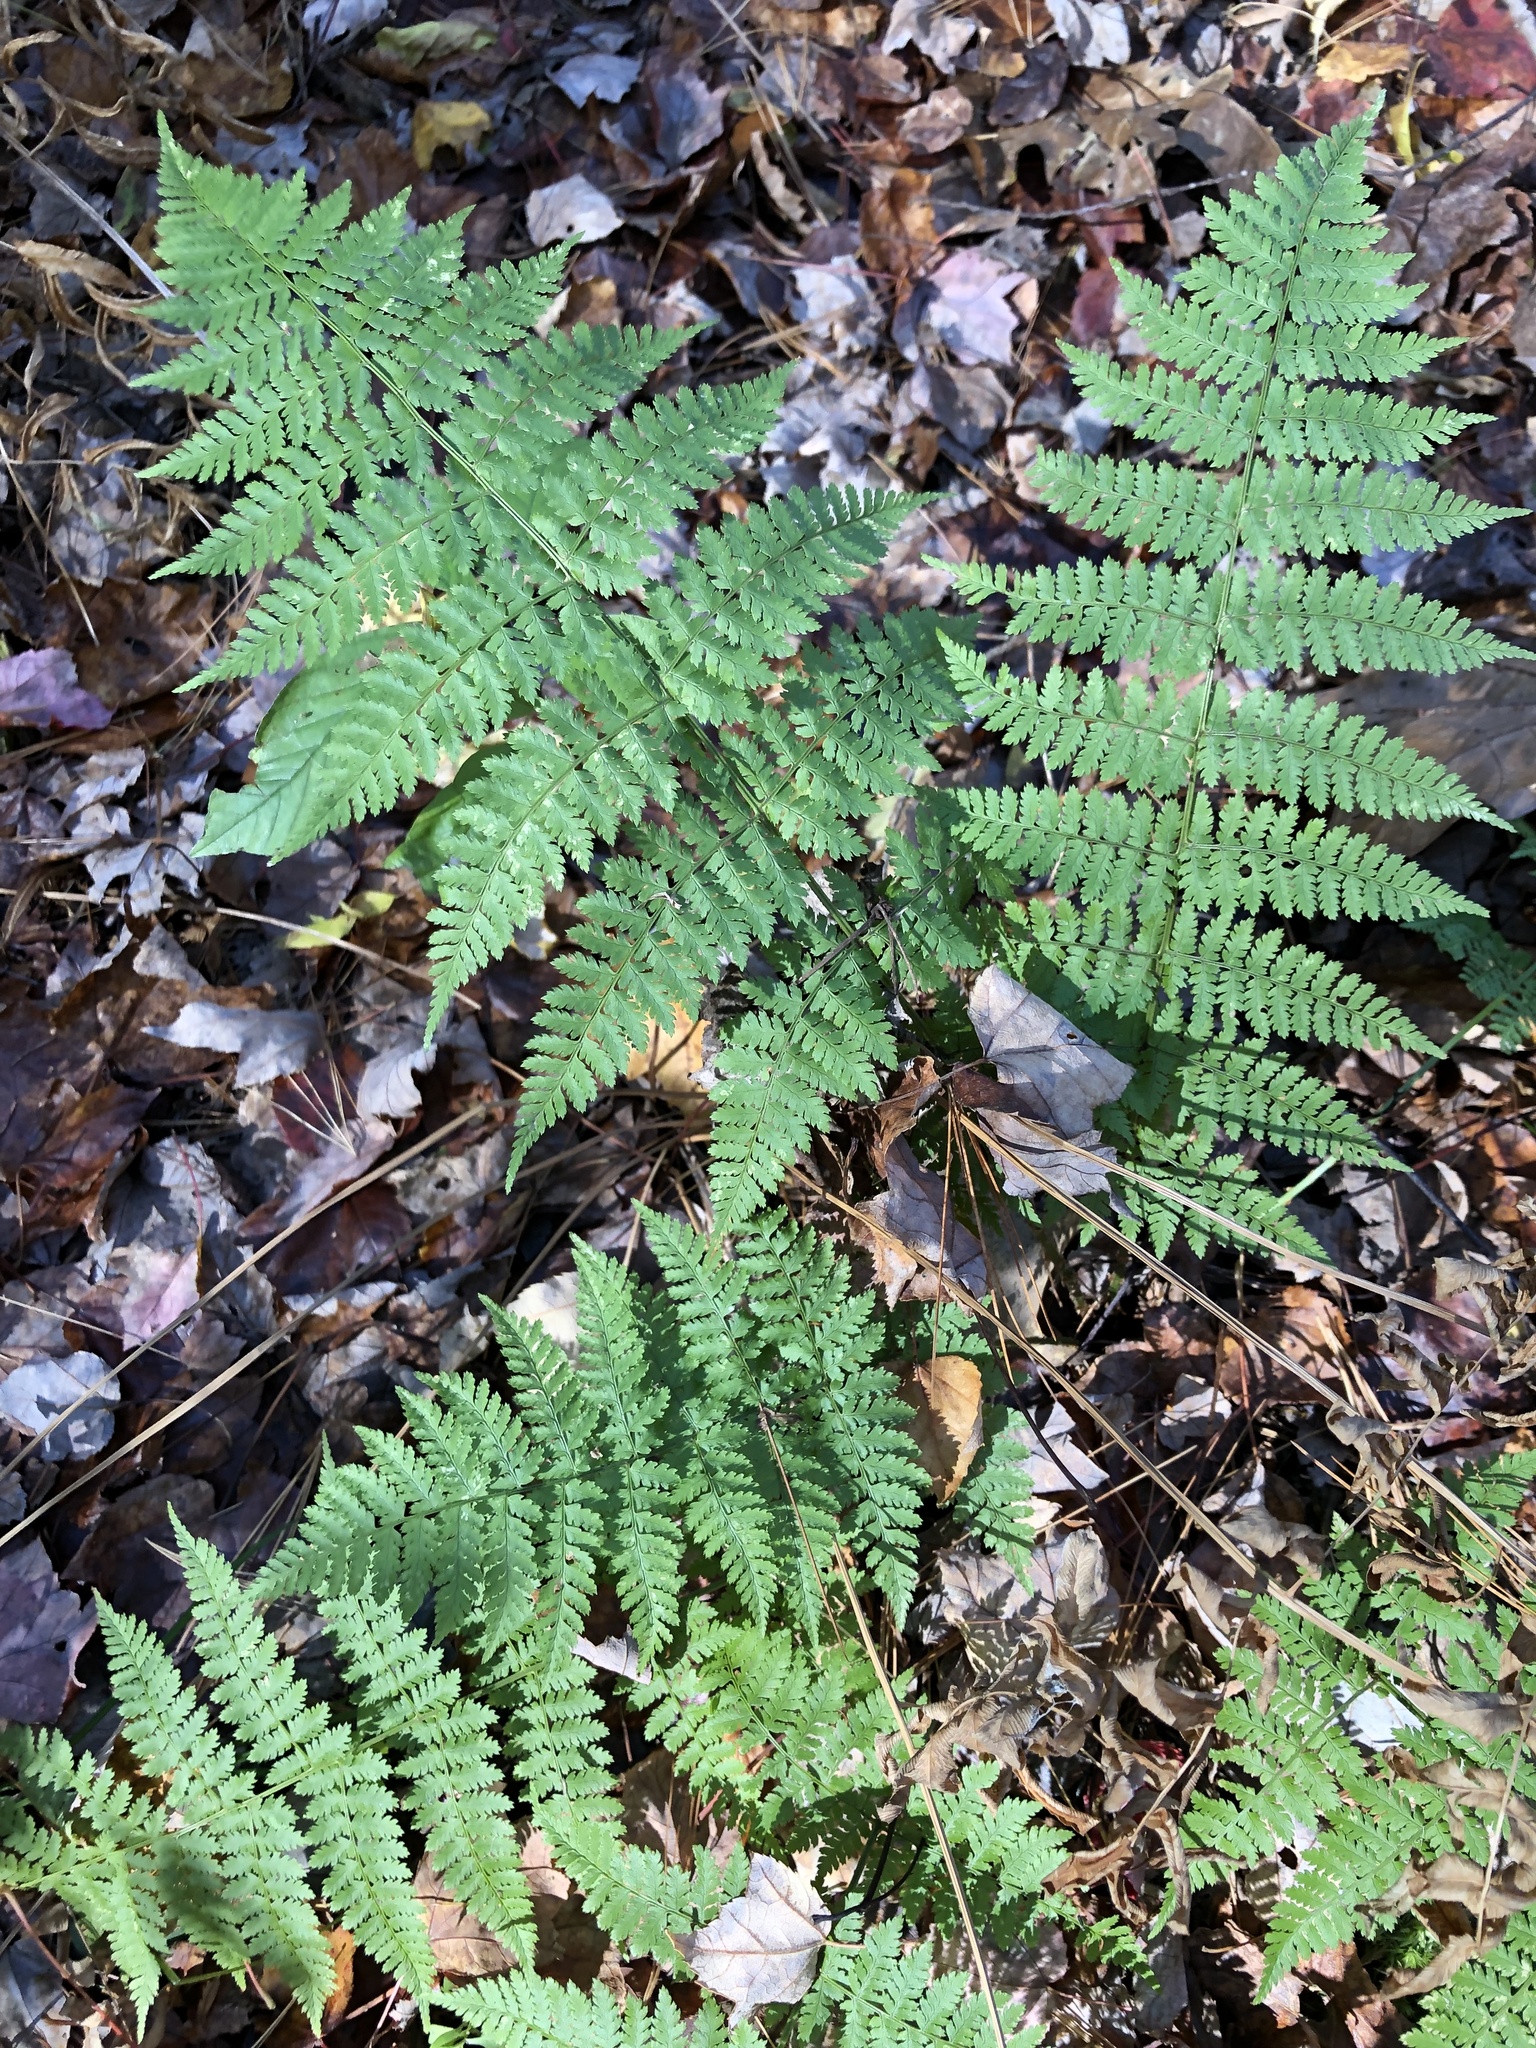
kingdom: Plantae
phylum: Tracheophyta
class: Polypodiopsida
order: Polypodiales
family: Dryopteridaceae
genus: Dryopteris
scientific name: Dryopteris intermedia
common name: Evergreen wood fern
